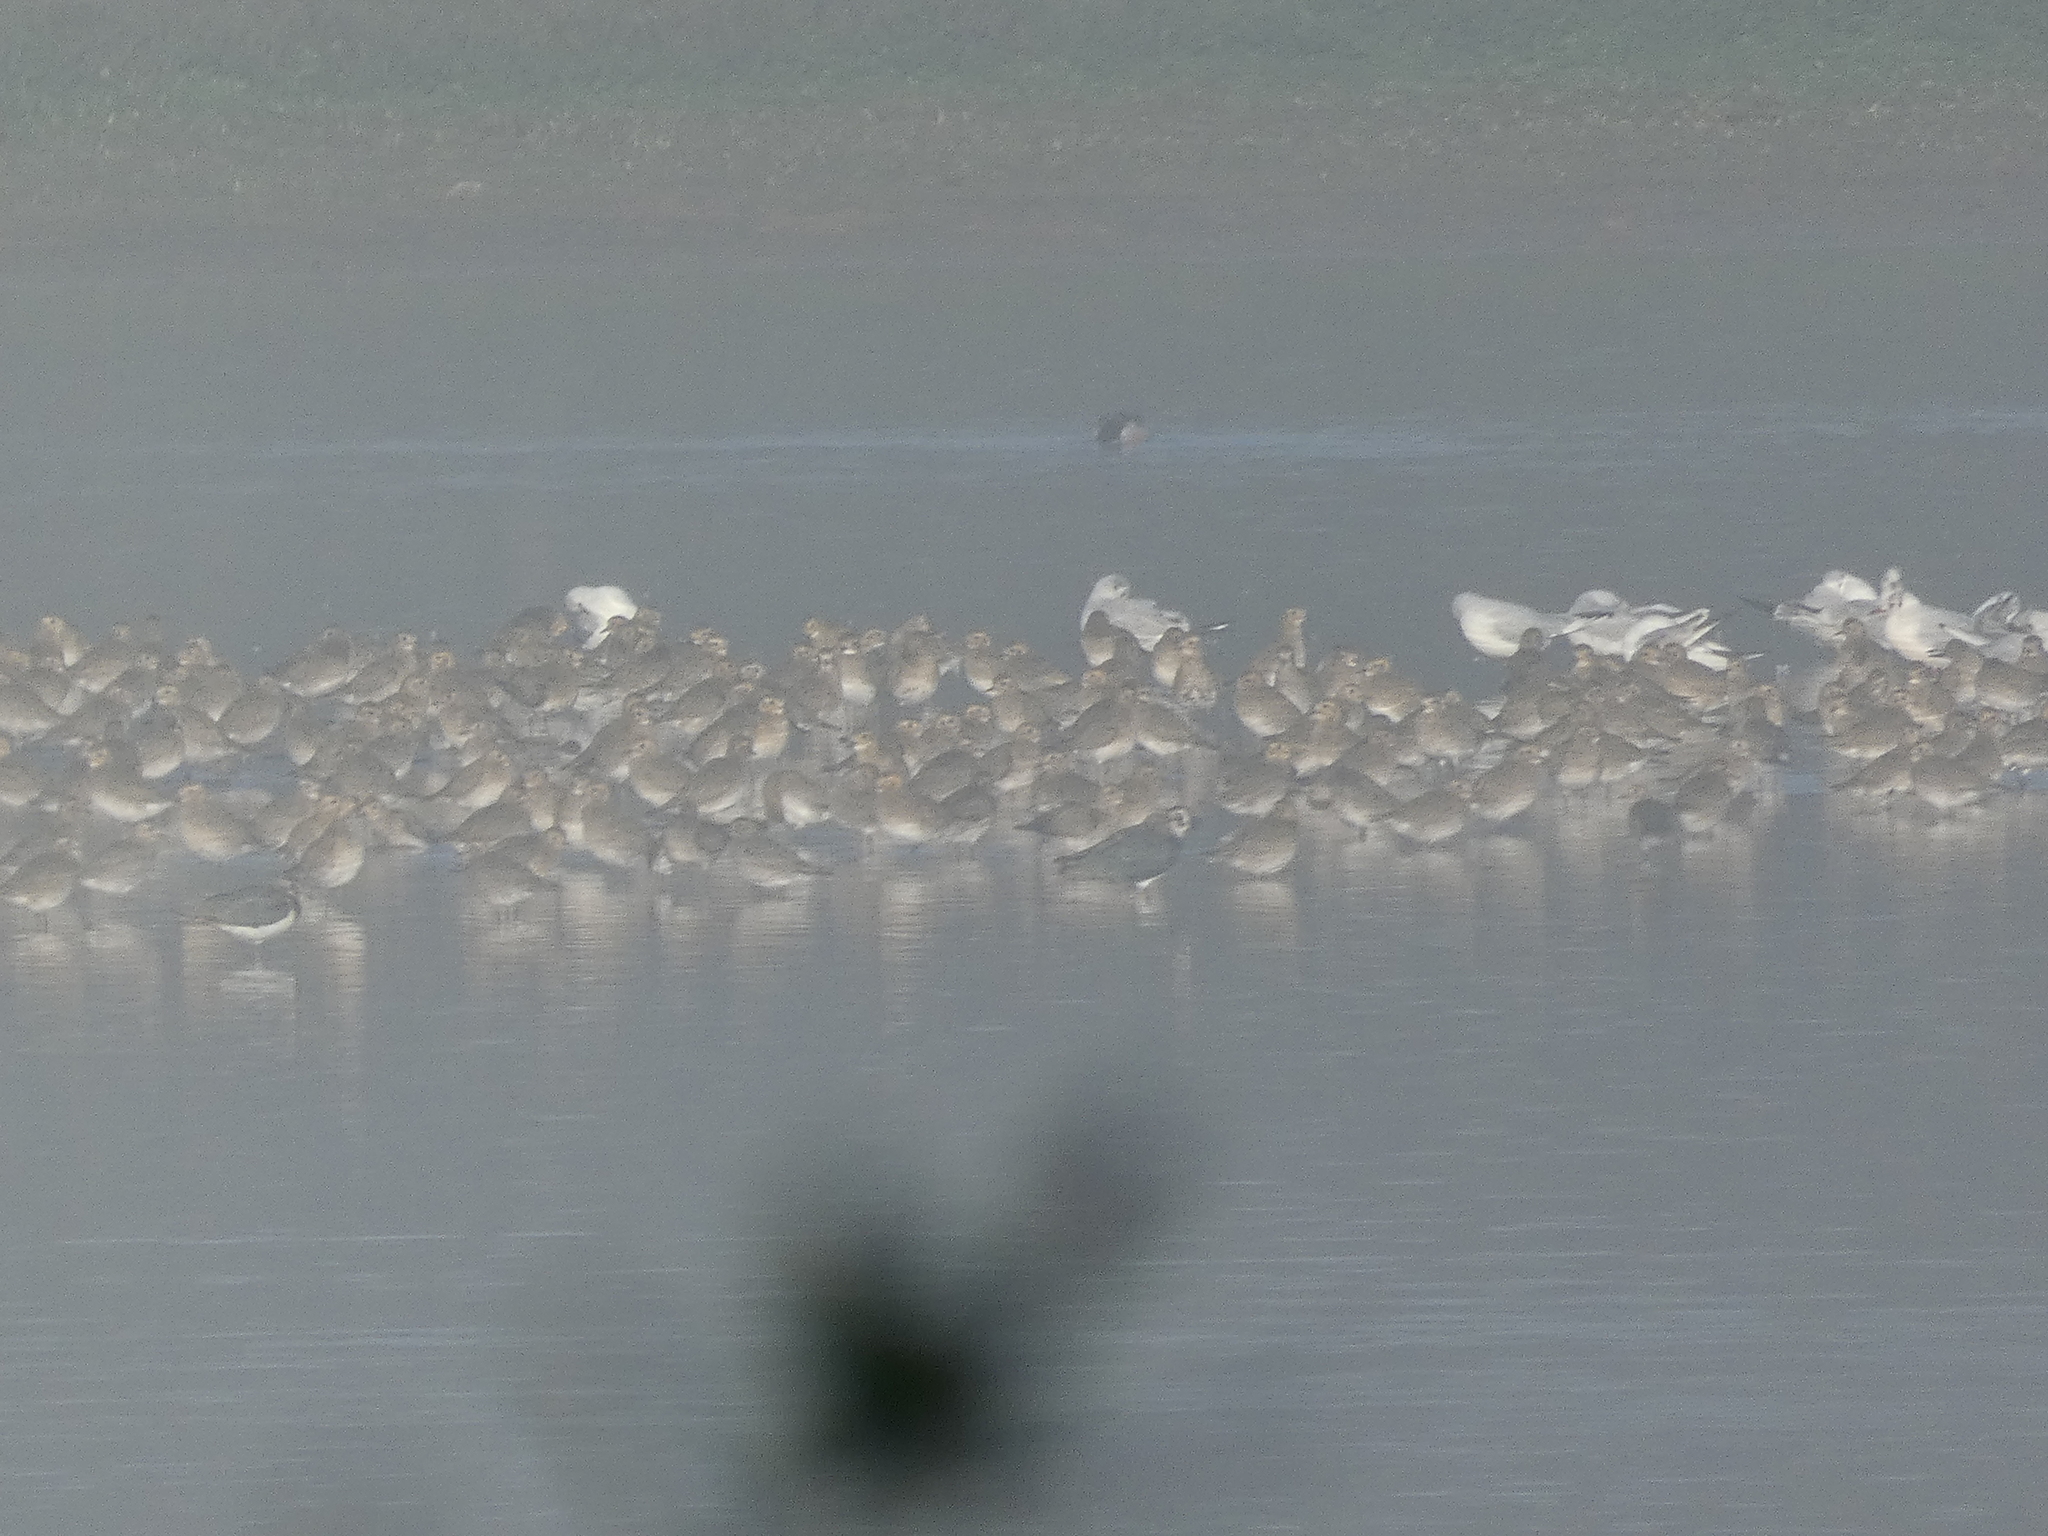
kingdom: Animalia
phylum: Chordata
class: Aves
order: Charadriiformes
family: Charadriidae
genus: Pluvialis
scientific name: Pluvialis apricaria
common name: European golden plover
